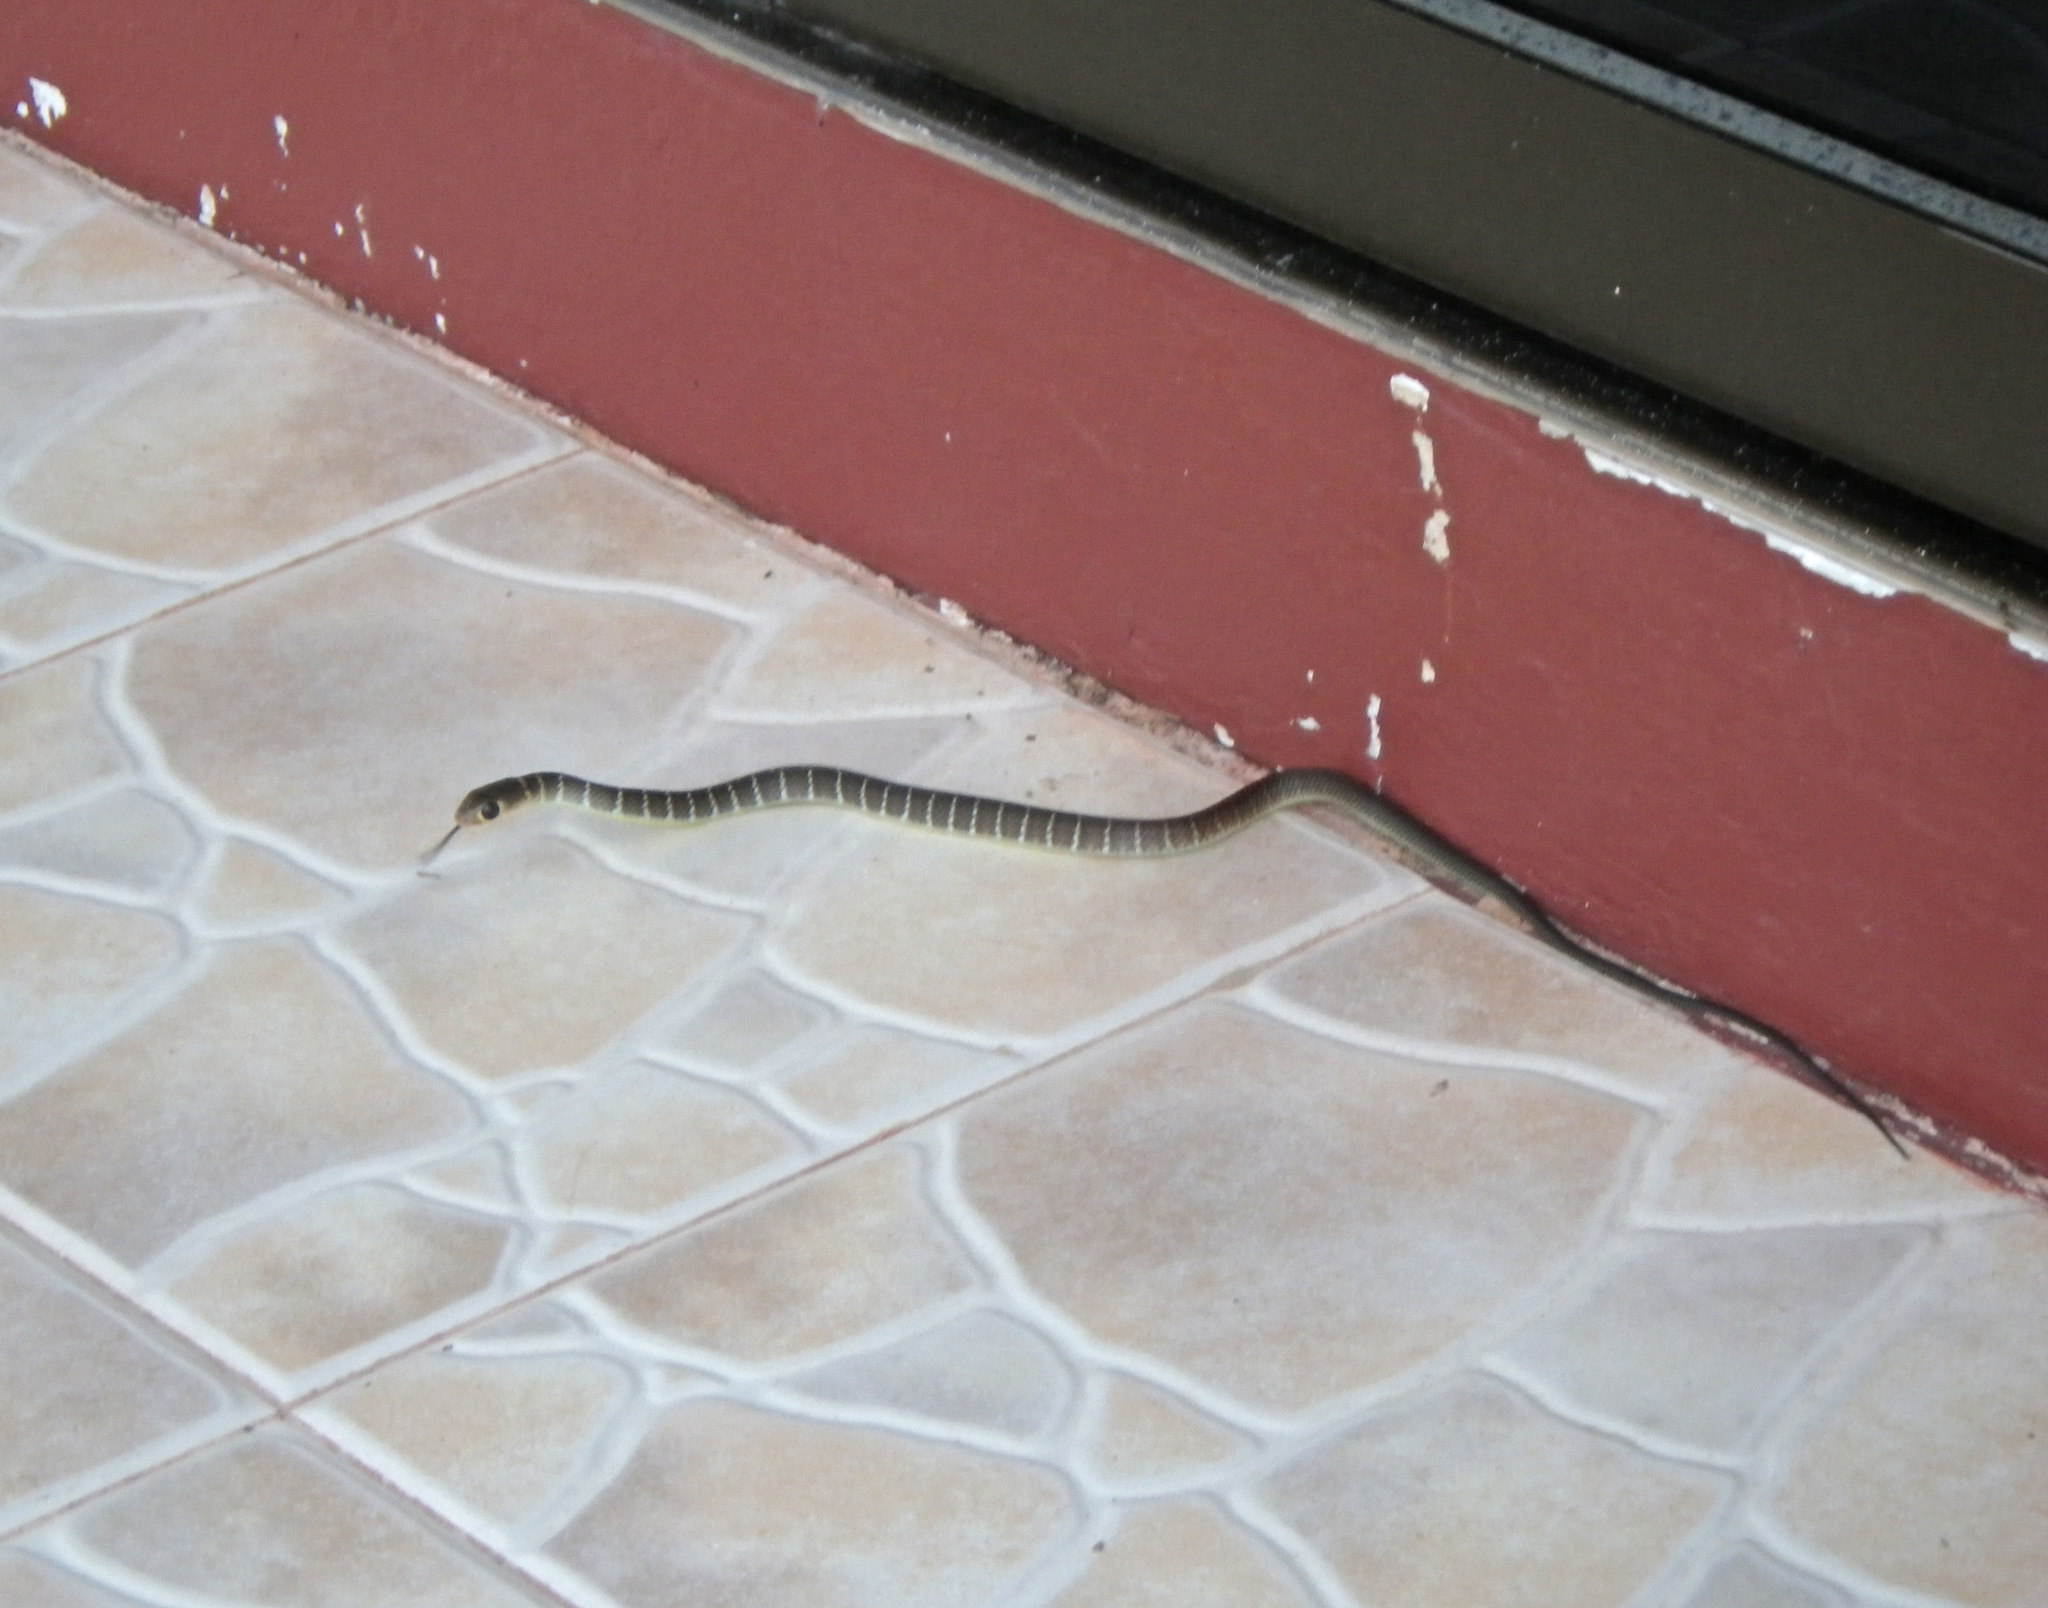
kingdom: Animalia
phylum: Chordata
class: Squamata
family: Colubridae
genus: Ptyas
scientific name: Ptyas korros
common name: Indo-chinese rat snake
